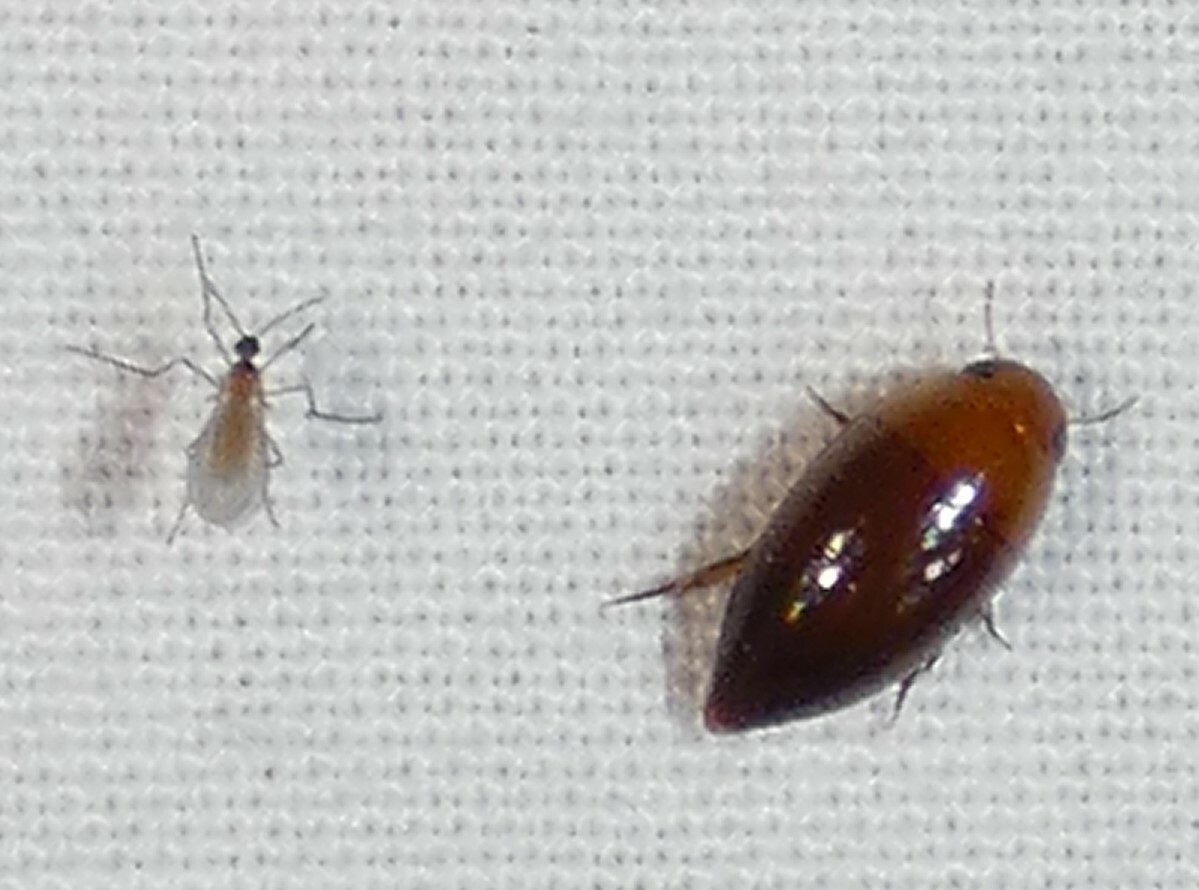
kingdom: Animalia
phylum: Arthropoda
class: Insecta
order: Coleoptera
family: Noteridae
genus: Hydrocanthus
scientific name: Hydrocanthus
